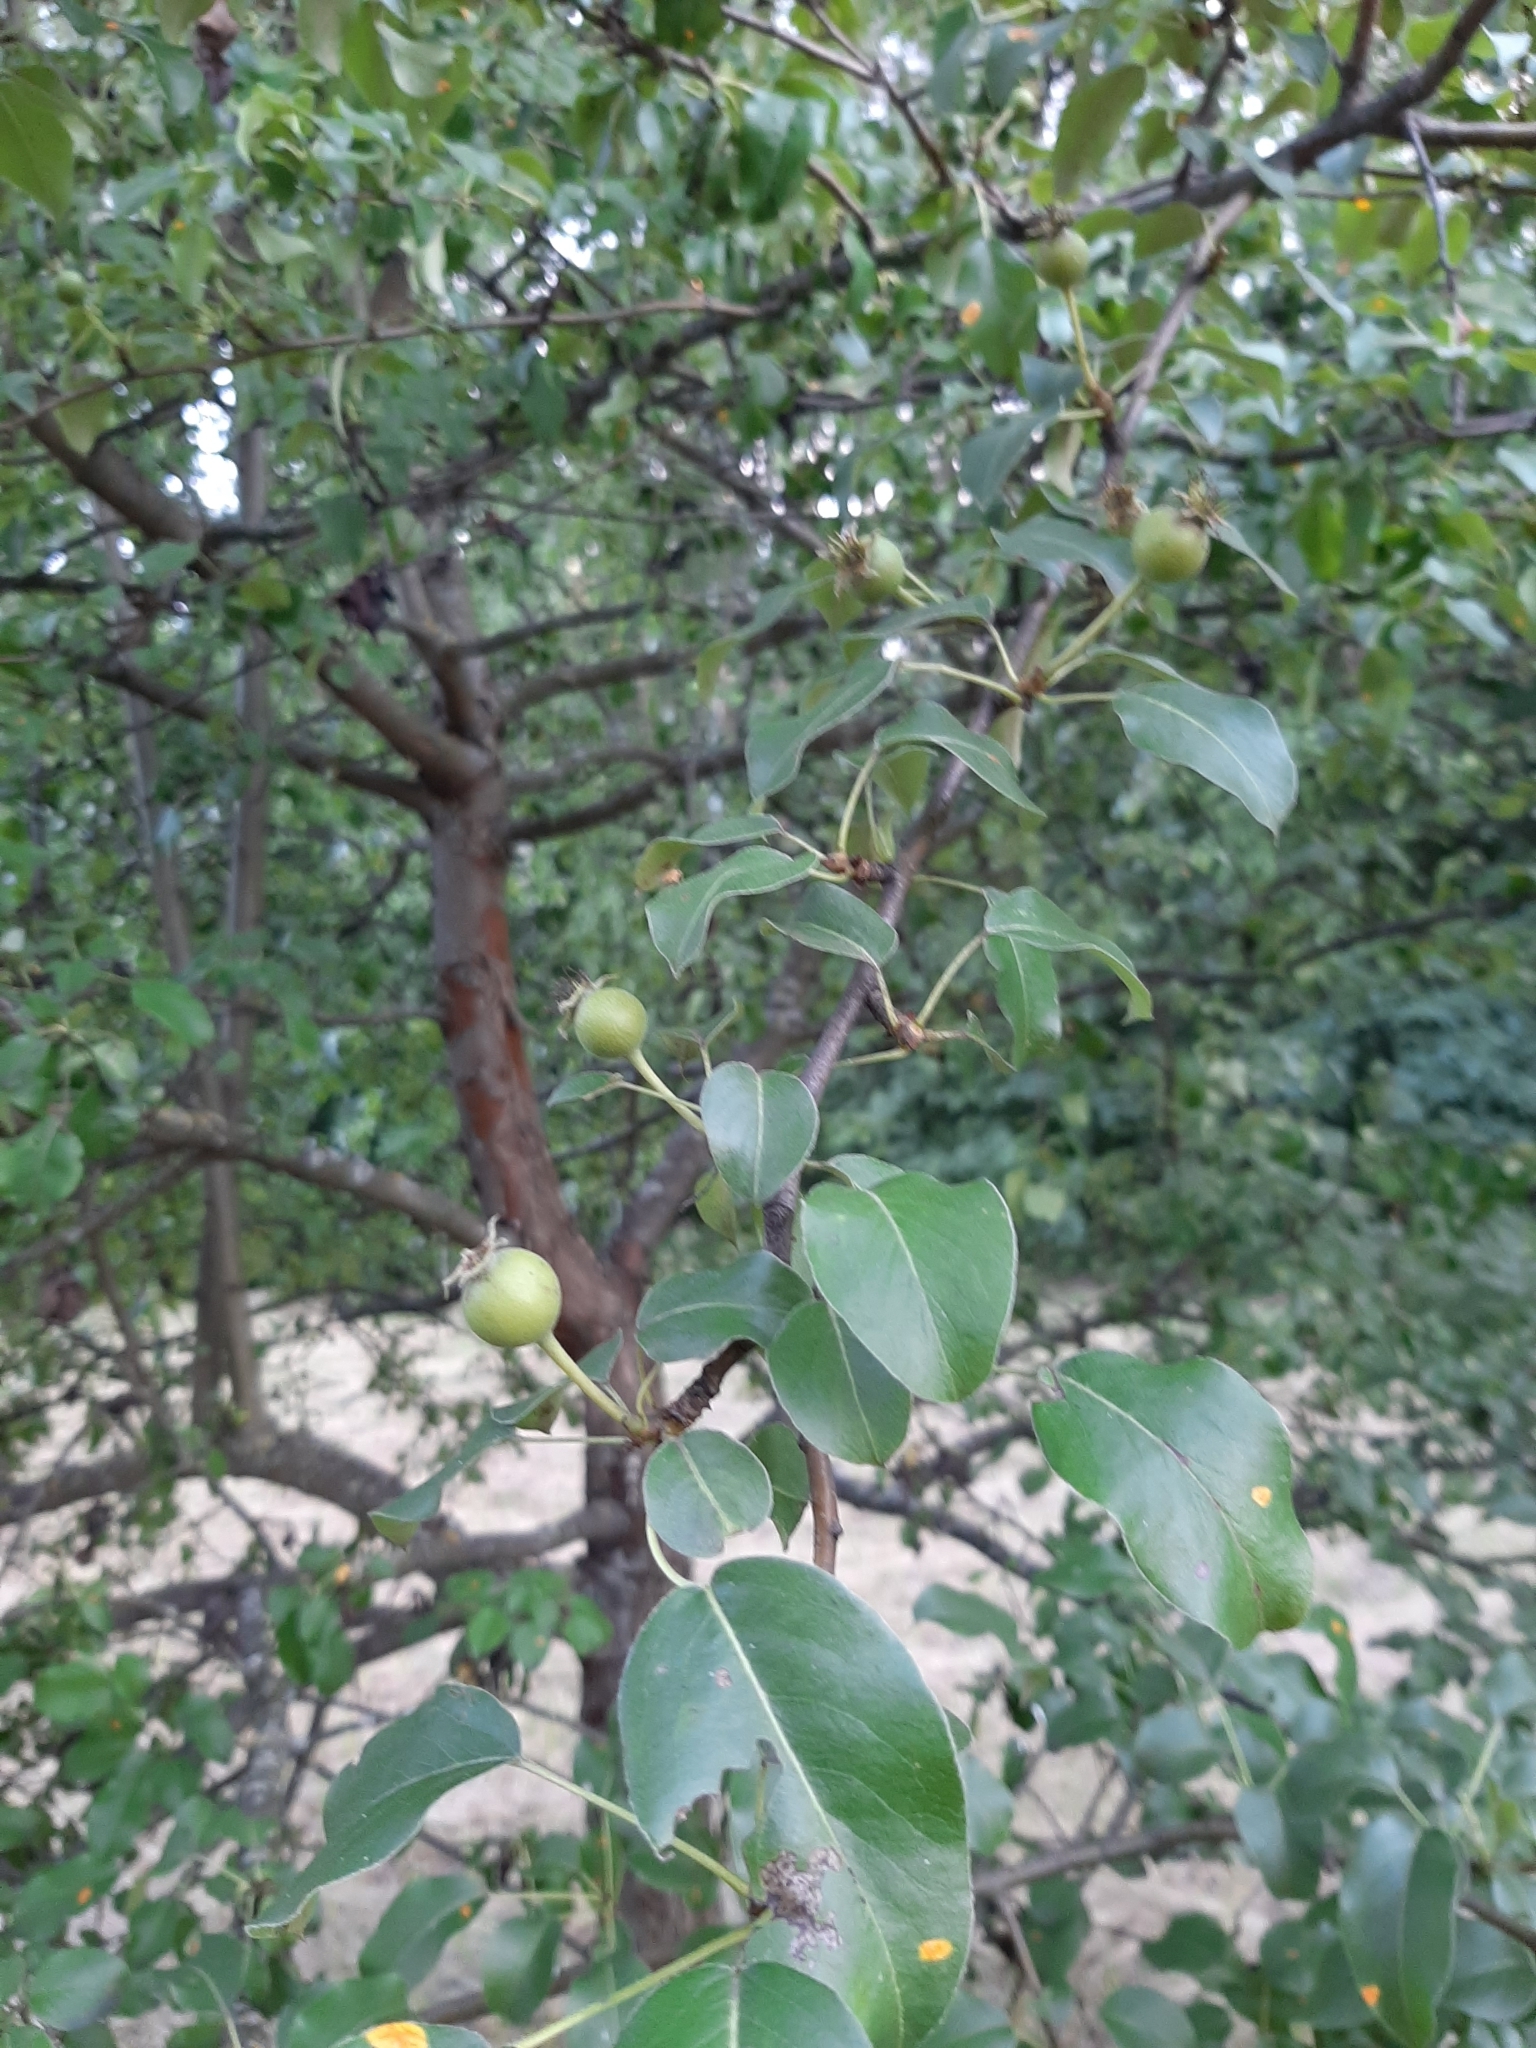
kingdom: Plantae
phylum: Tracheophyta
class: Magnoliopsida
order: Rosales
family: Rosaceae
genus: Pyrus
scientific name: Pyrus communis
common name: Pear
